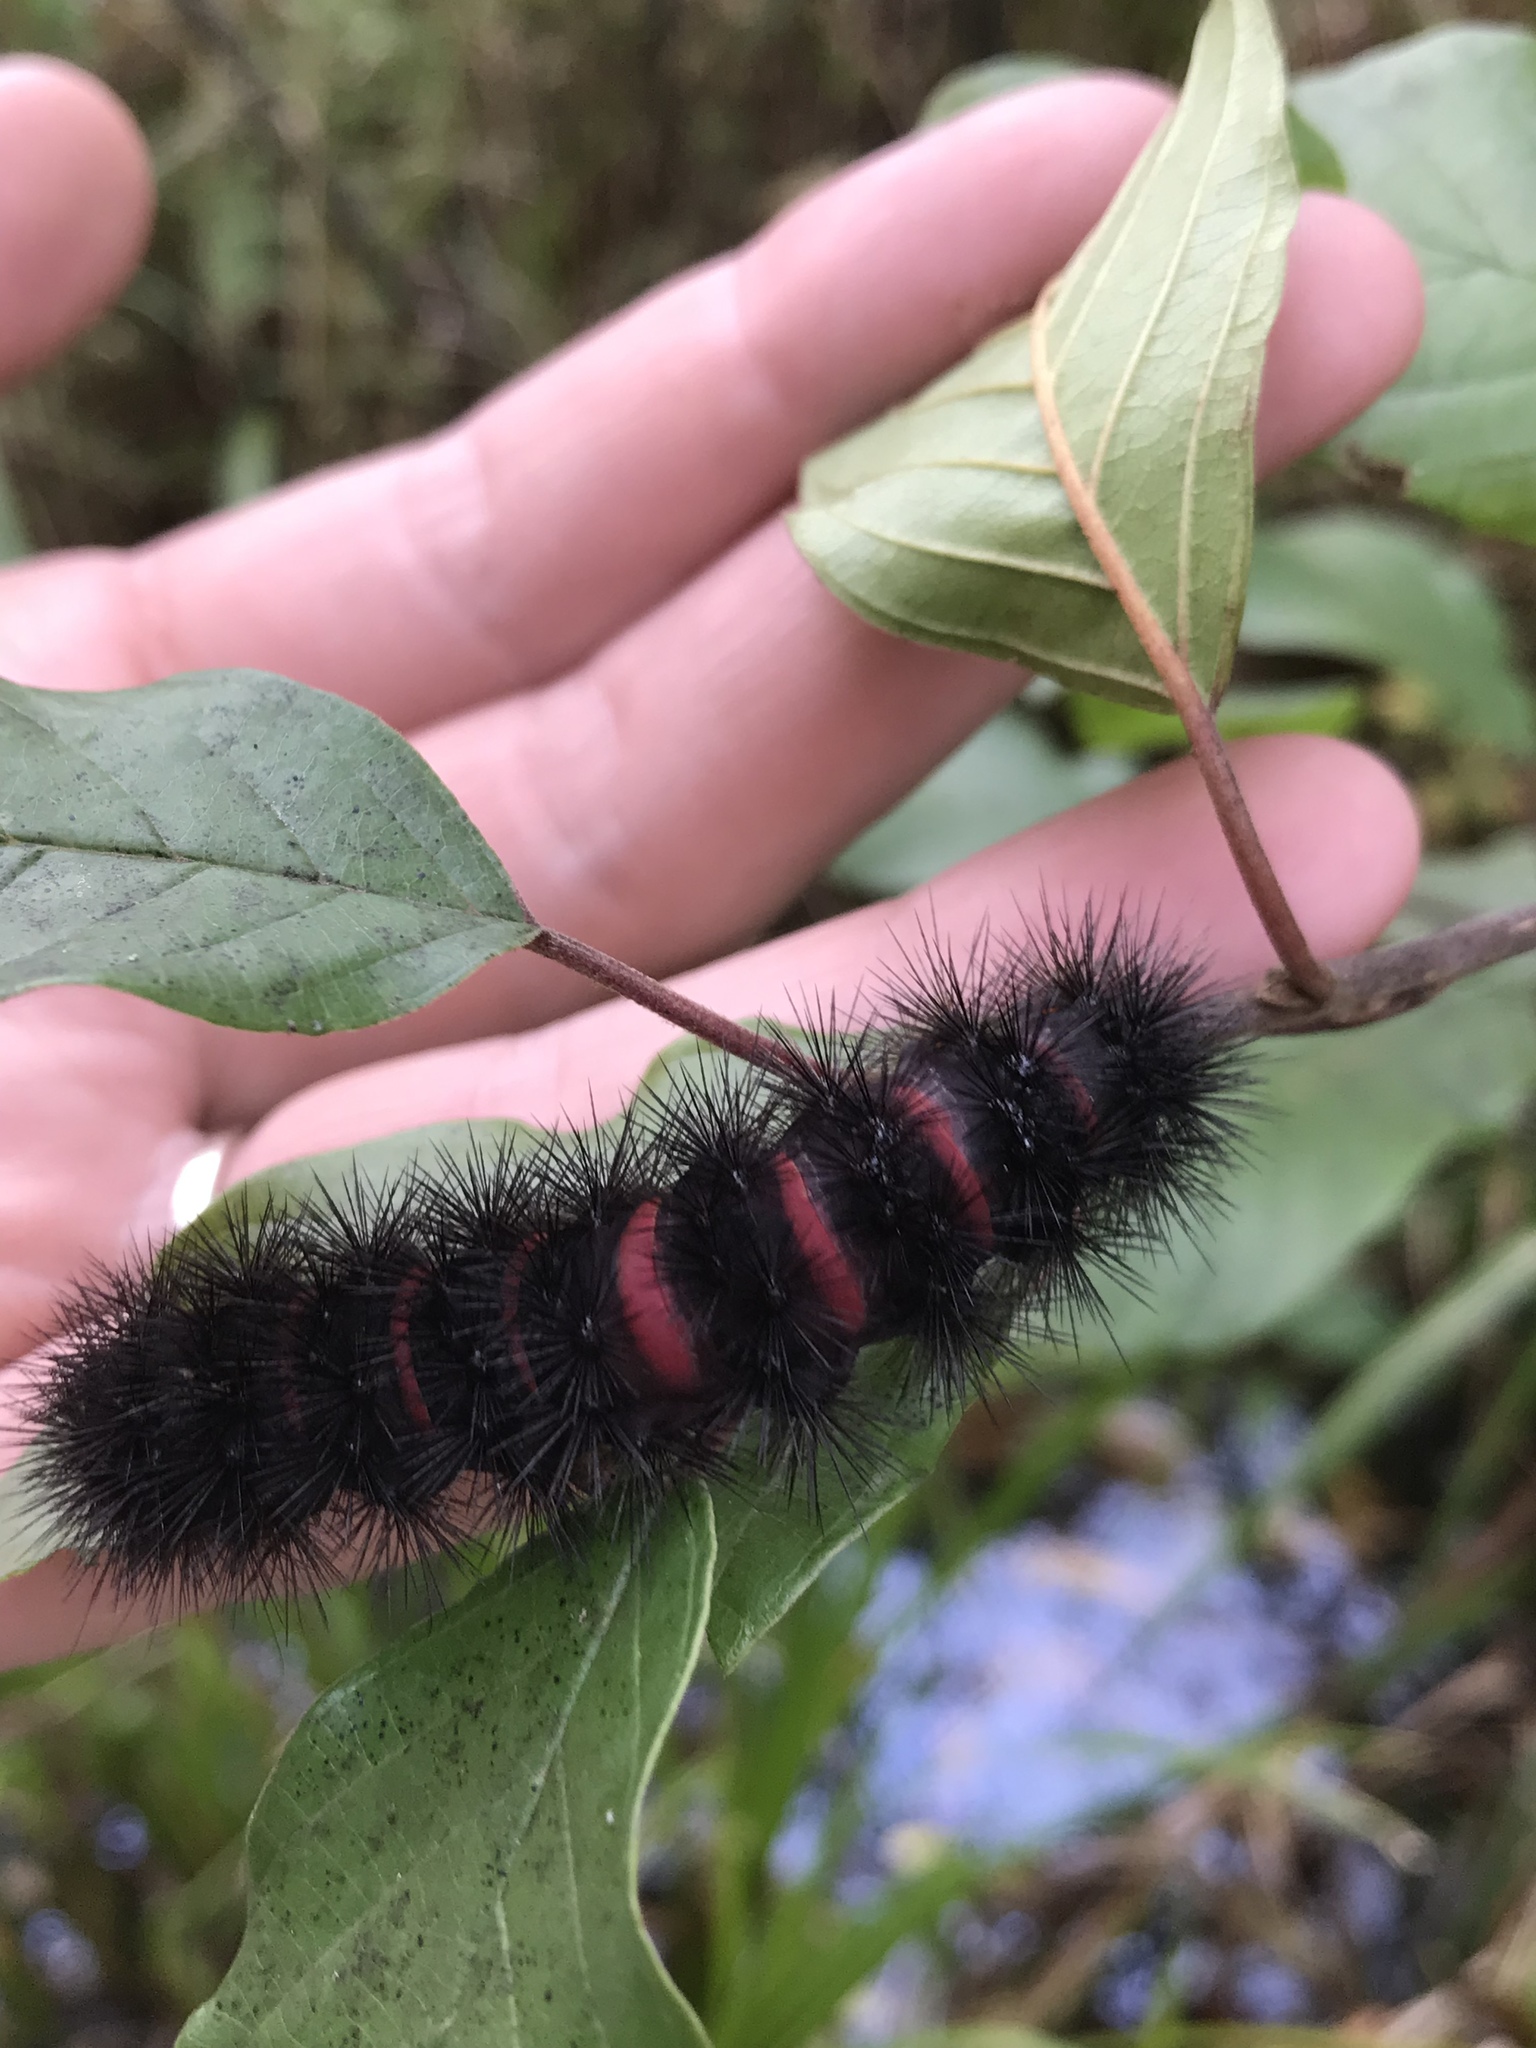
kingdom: Animalia
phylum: Arthropoda
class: Insecta
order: Lepidoptera
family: Erebidae
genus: Hypercompe
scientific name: Hypercompe scribonia
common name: Giant leopard moth
